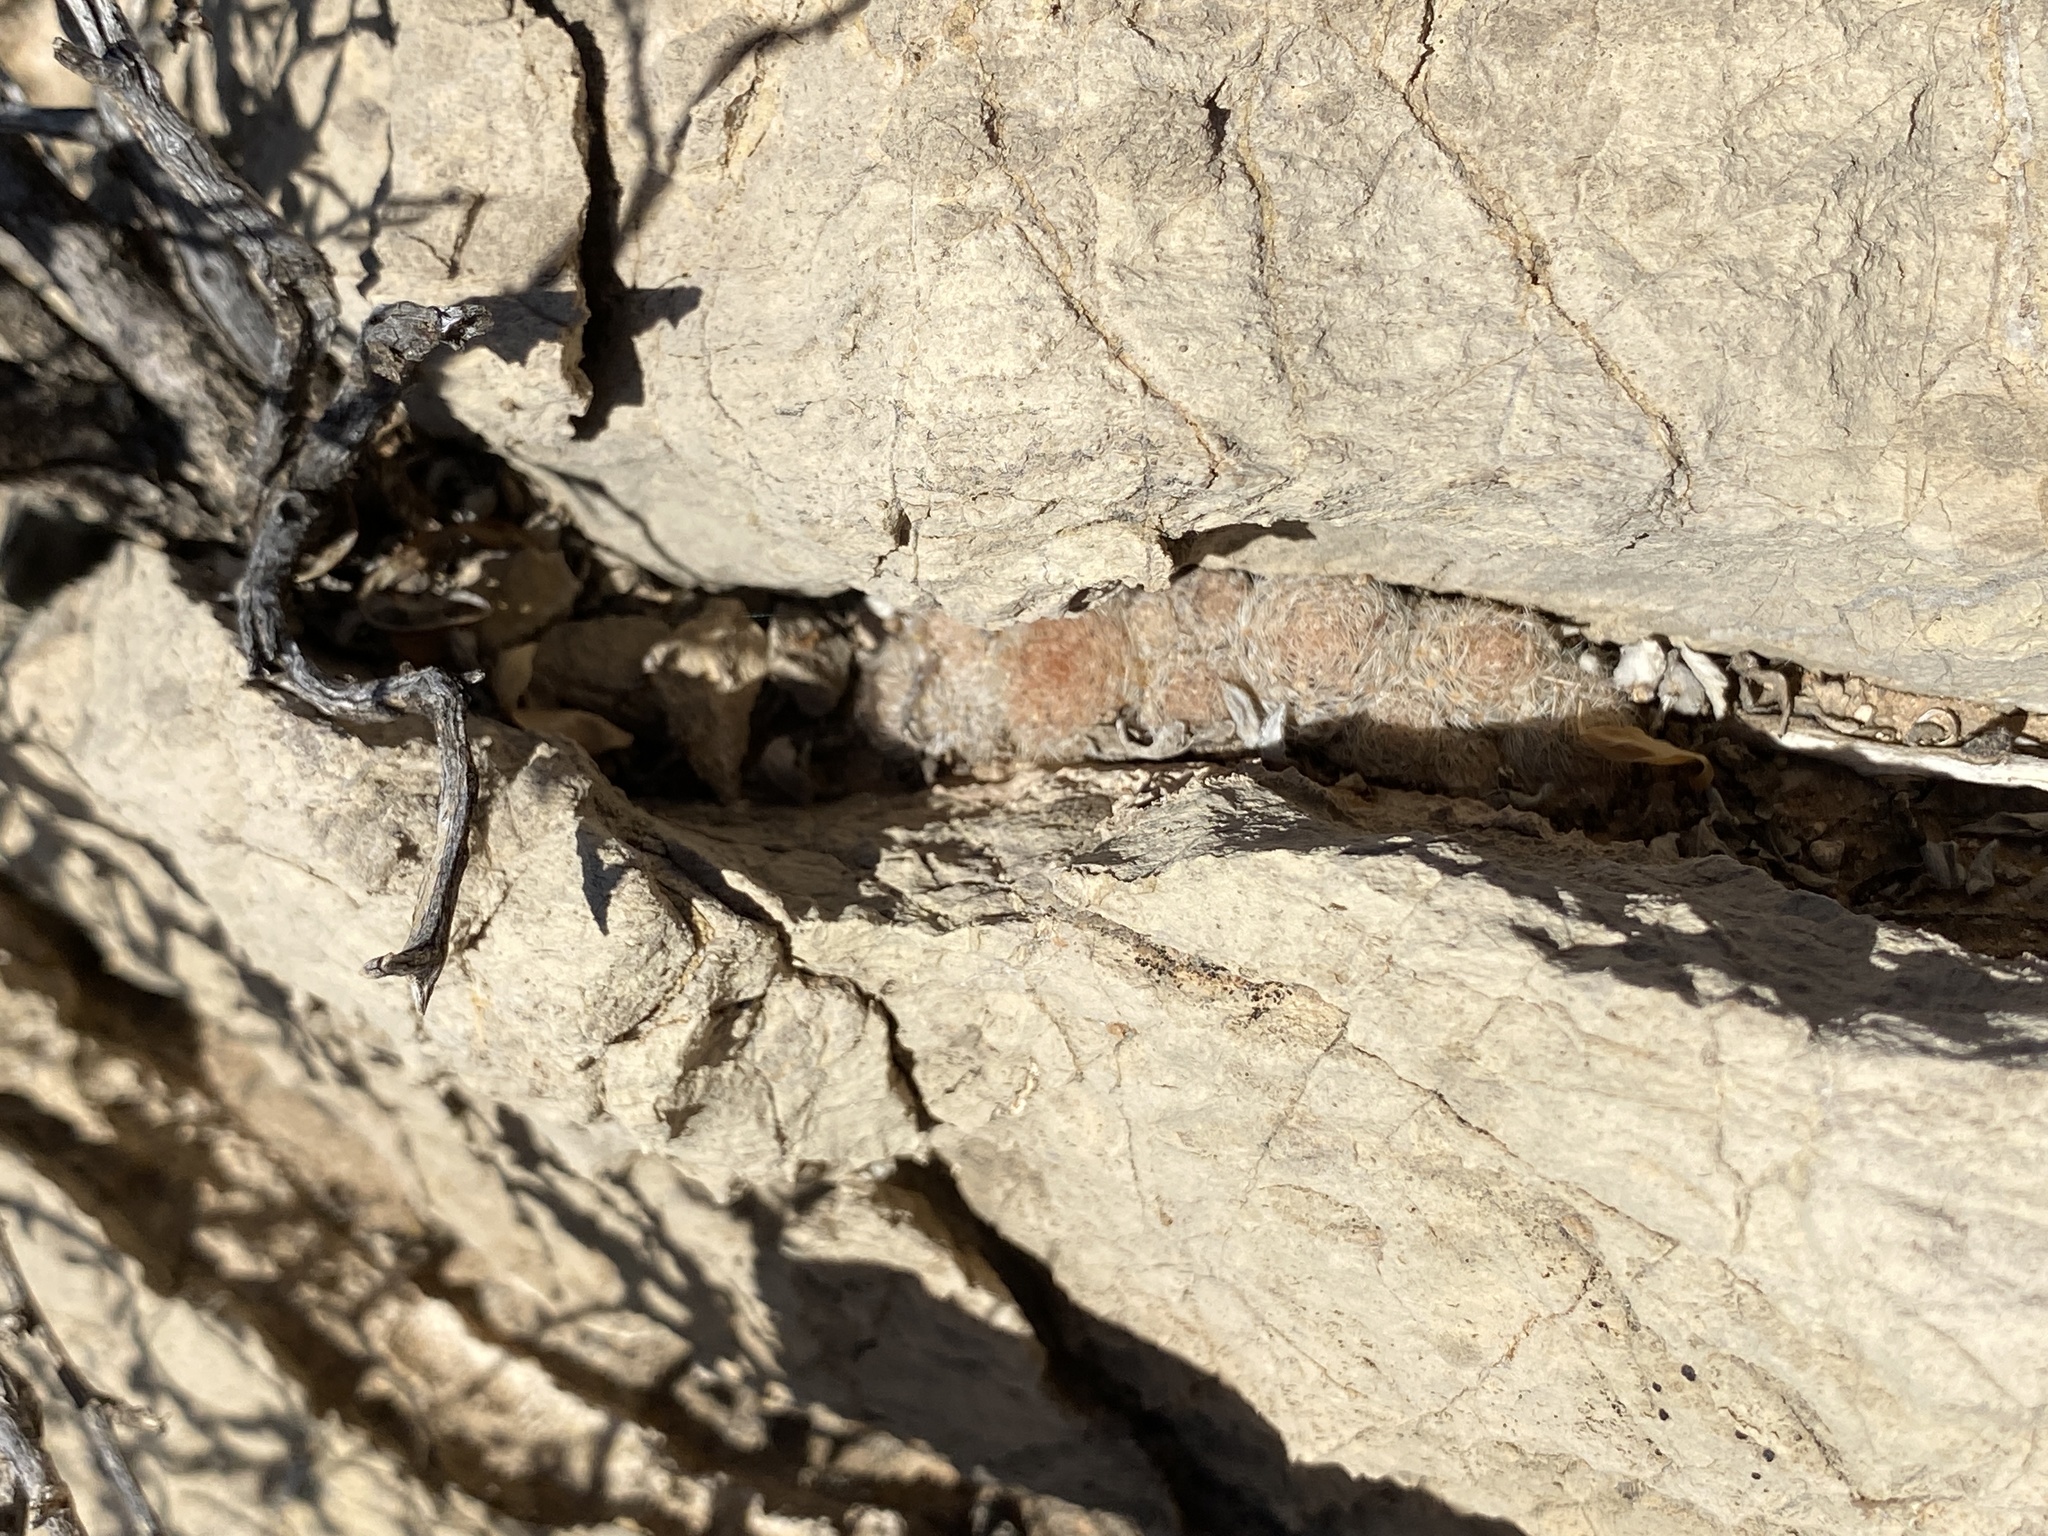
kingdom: Plantae
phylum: Tracheophyta
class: Magnoliopsida
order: Caryophyllales
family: Cactaceae
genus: Mammillaria
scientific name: Mammillaria lasiacantha
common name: Lace-spine nipple cactus
